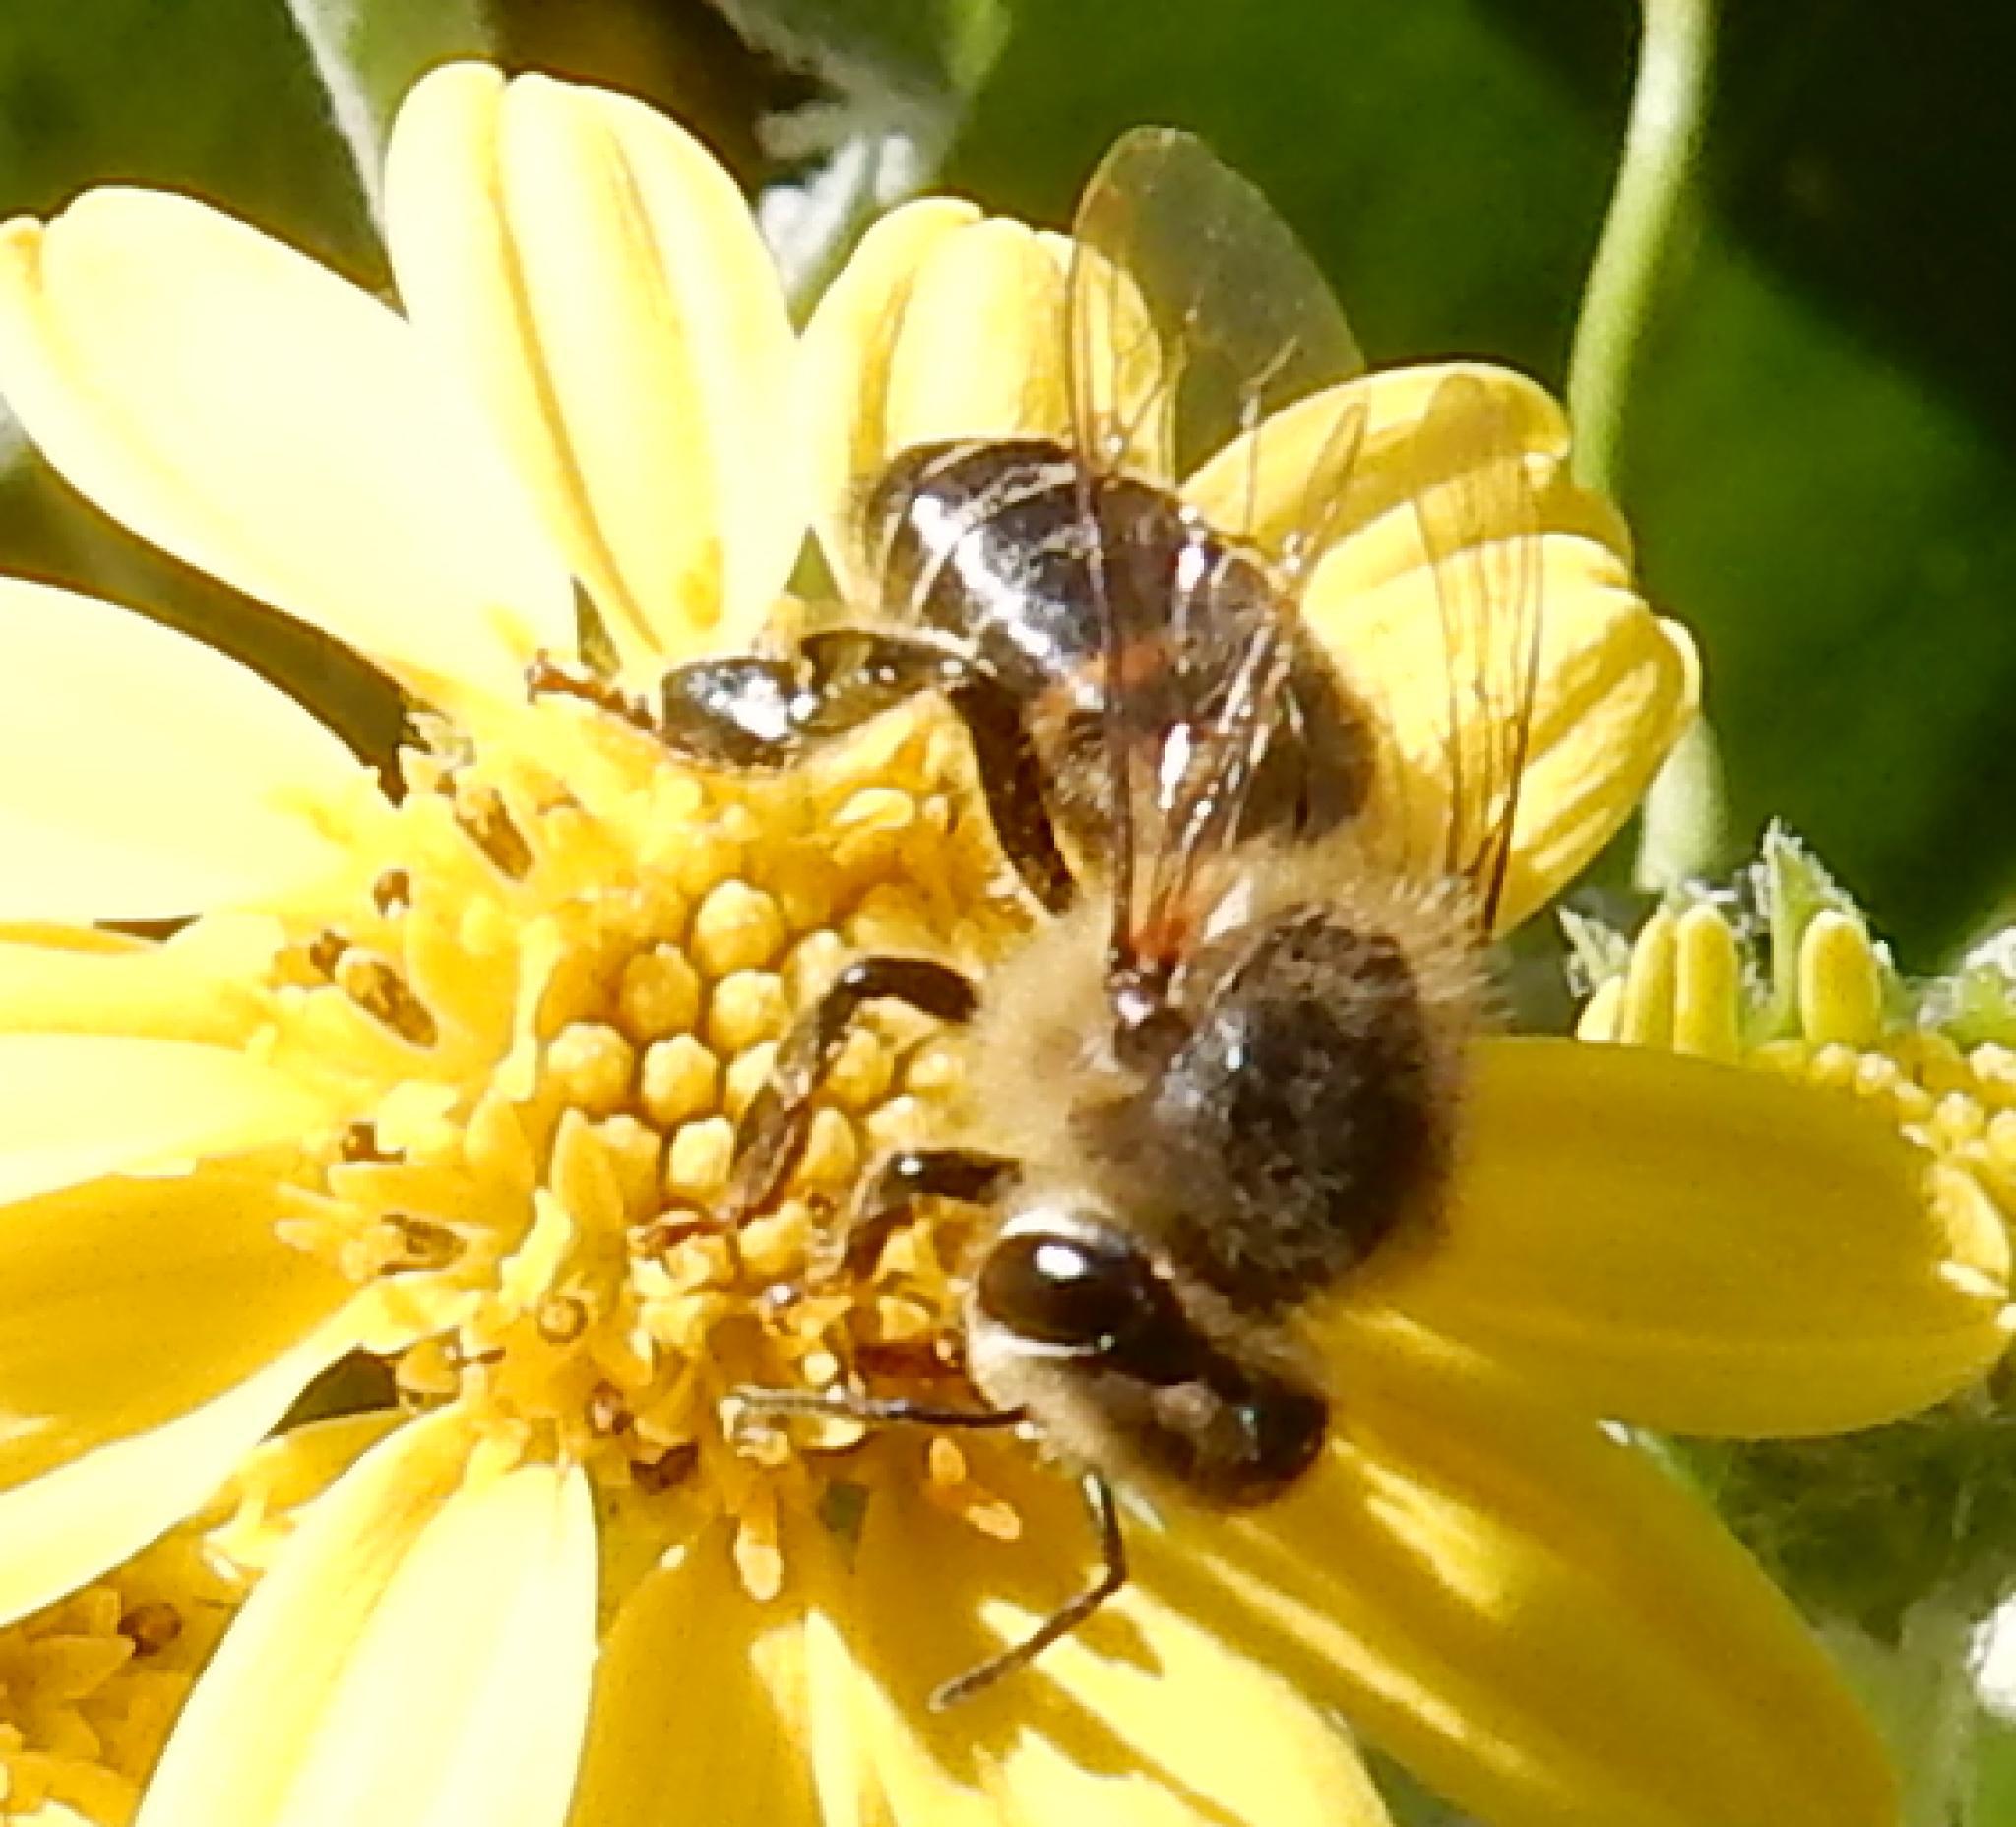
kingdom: Animalia
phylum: Arthropoda
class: Insecta
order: Hymenoptera
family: Apidae
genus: Apis
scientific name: Apis mellifera
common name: Honey bee
